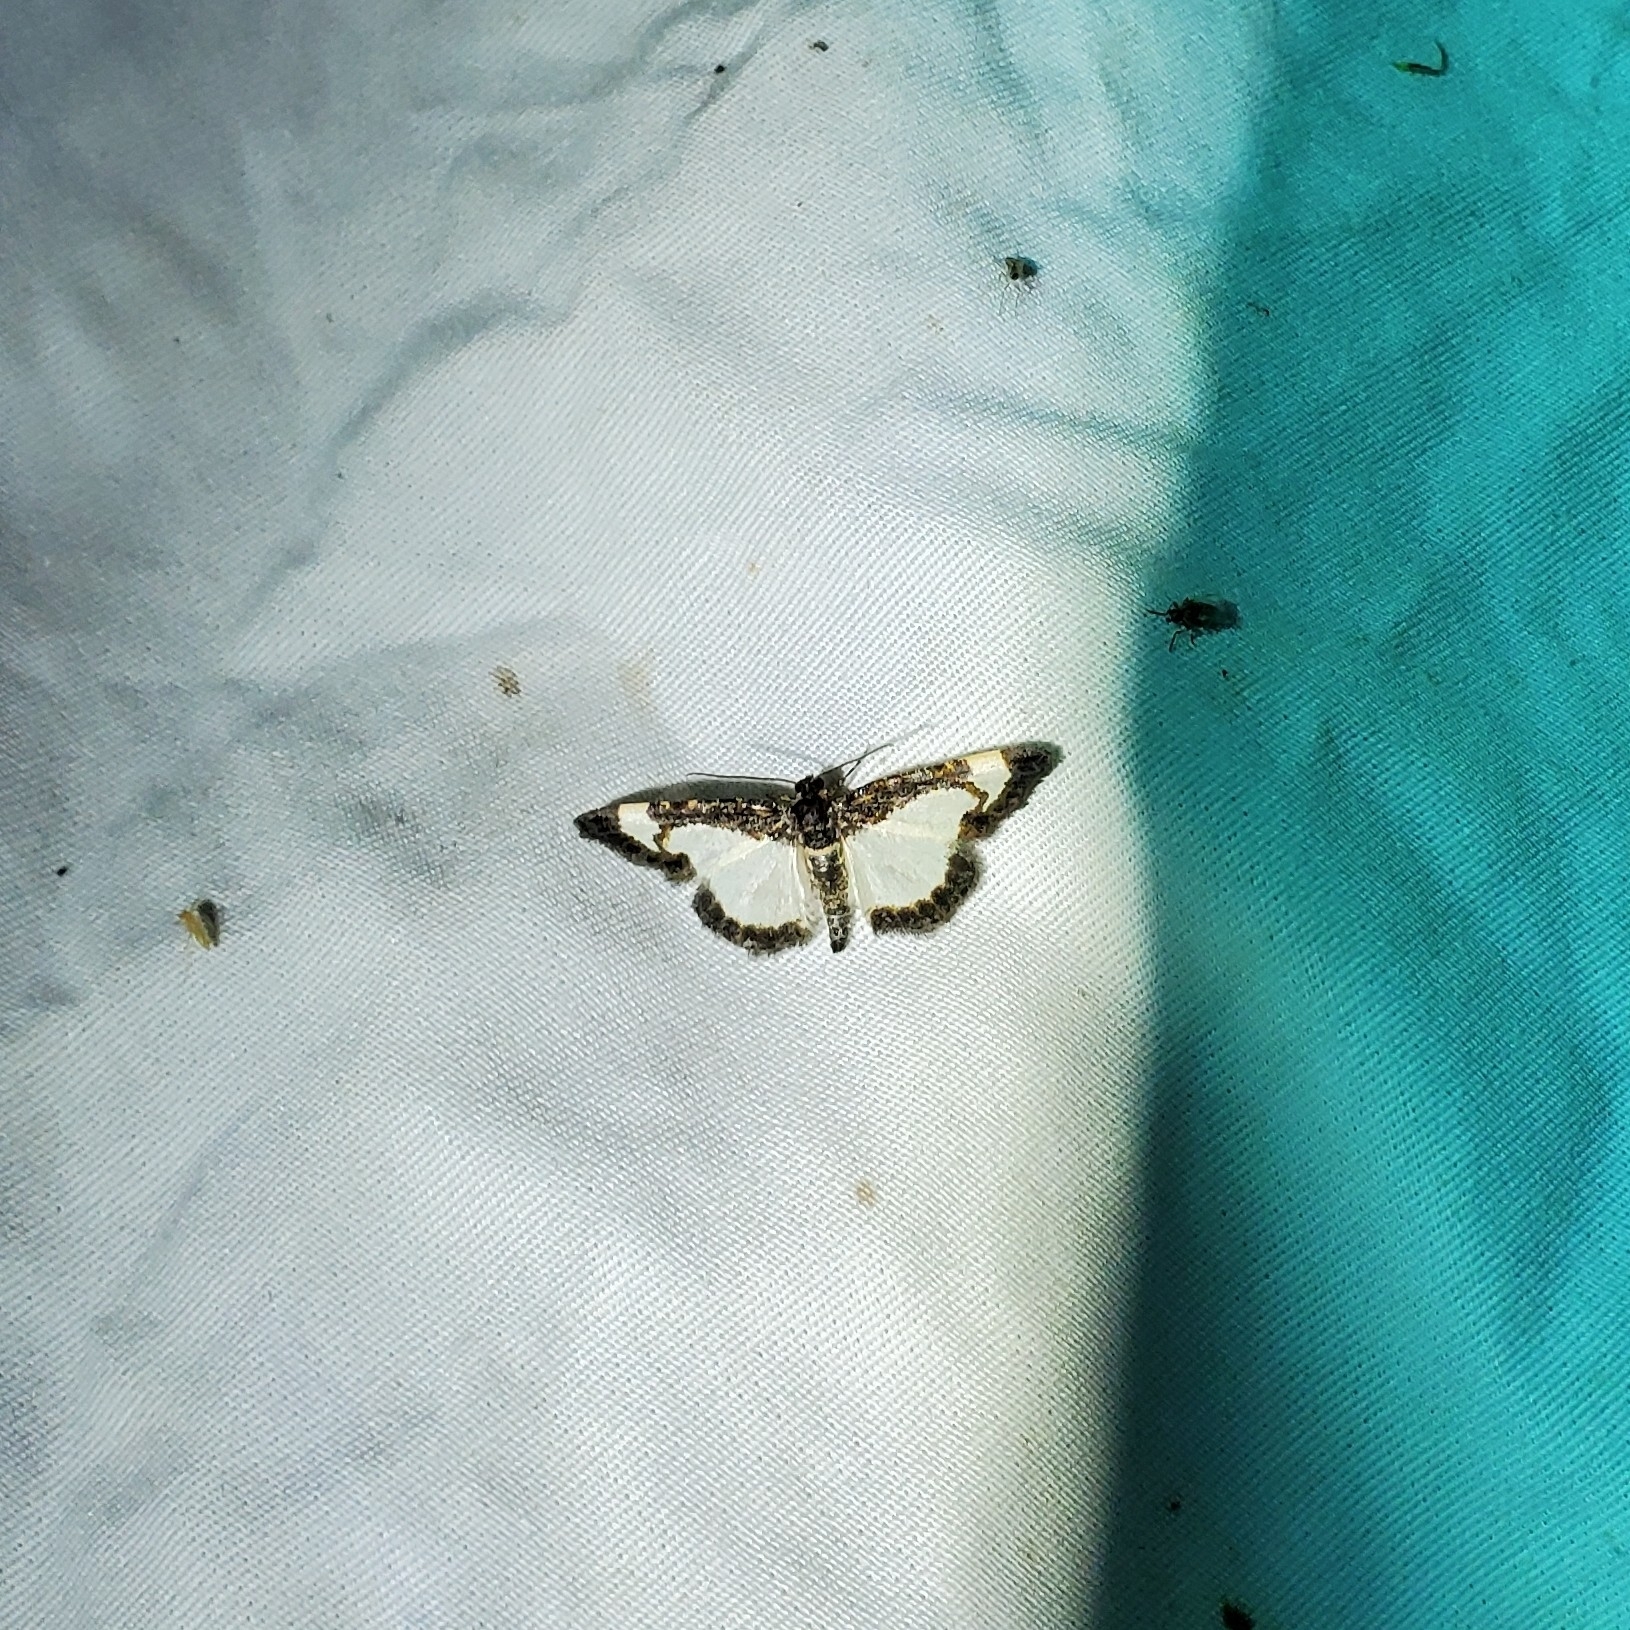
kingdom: Animalia
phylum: Arthropoda
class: Insecta
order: Lepidoptera
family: Geometridae
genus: Heliomata
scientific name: Heliomata cycladata
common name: Common spring moth
